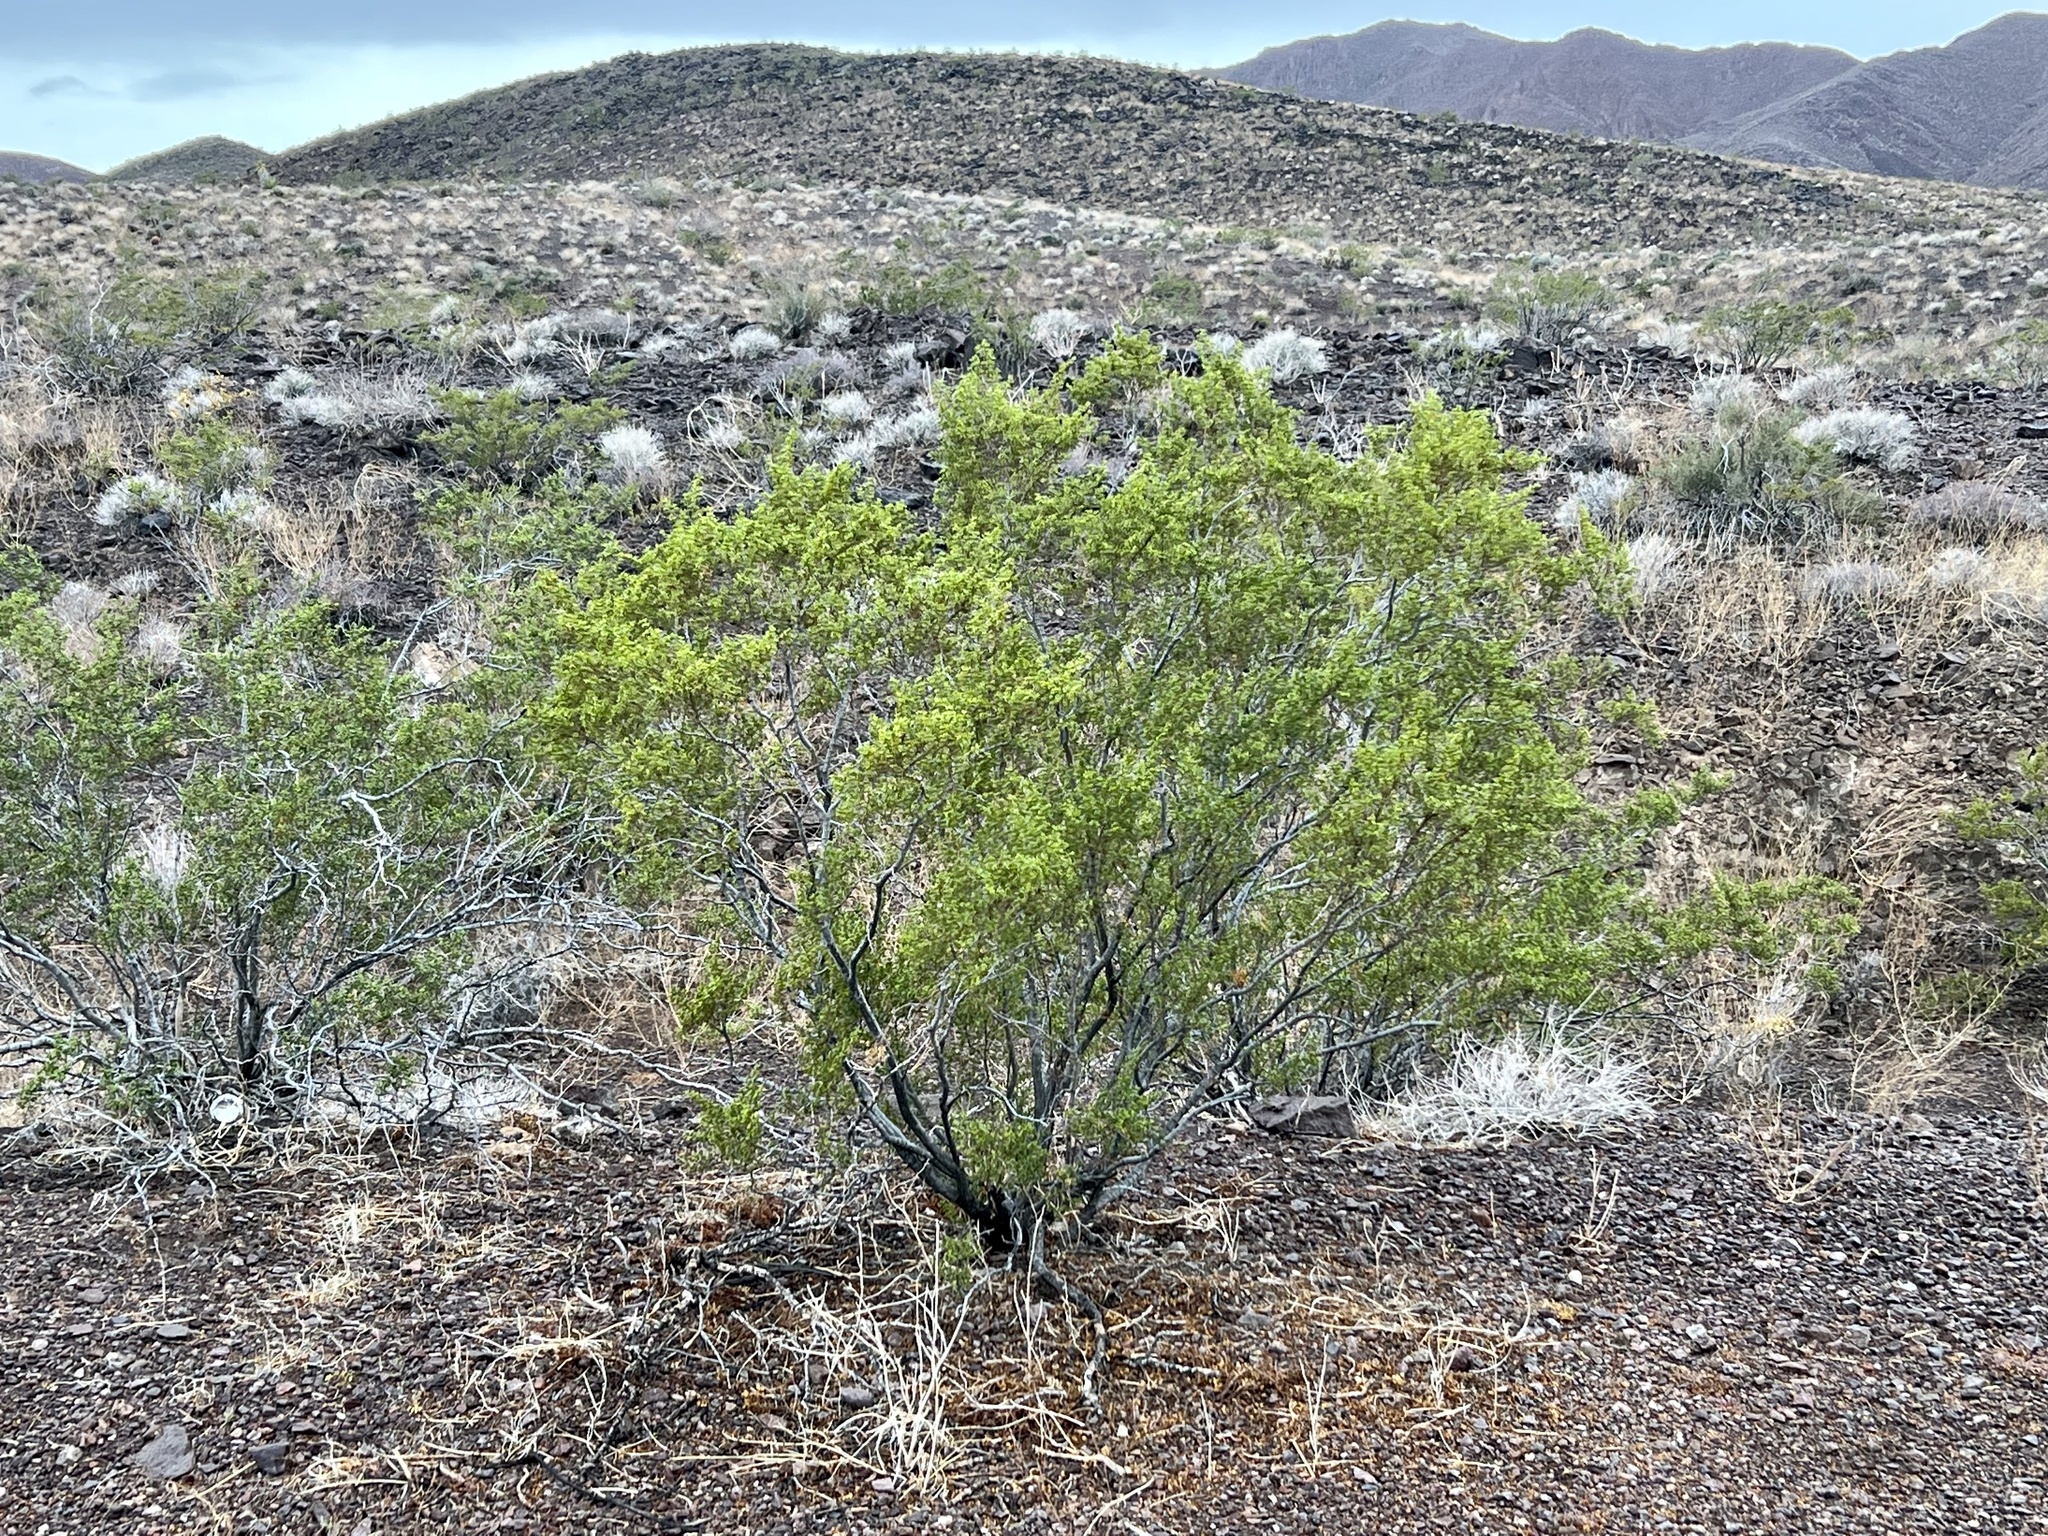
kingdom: Plantae
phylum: Tracheophyta
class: Magnoliopsida
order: Zygophyllales
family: Zygophyllaceae
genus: Larrea
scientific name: Larrea tridentata
